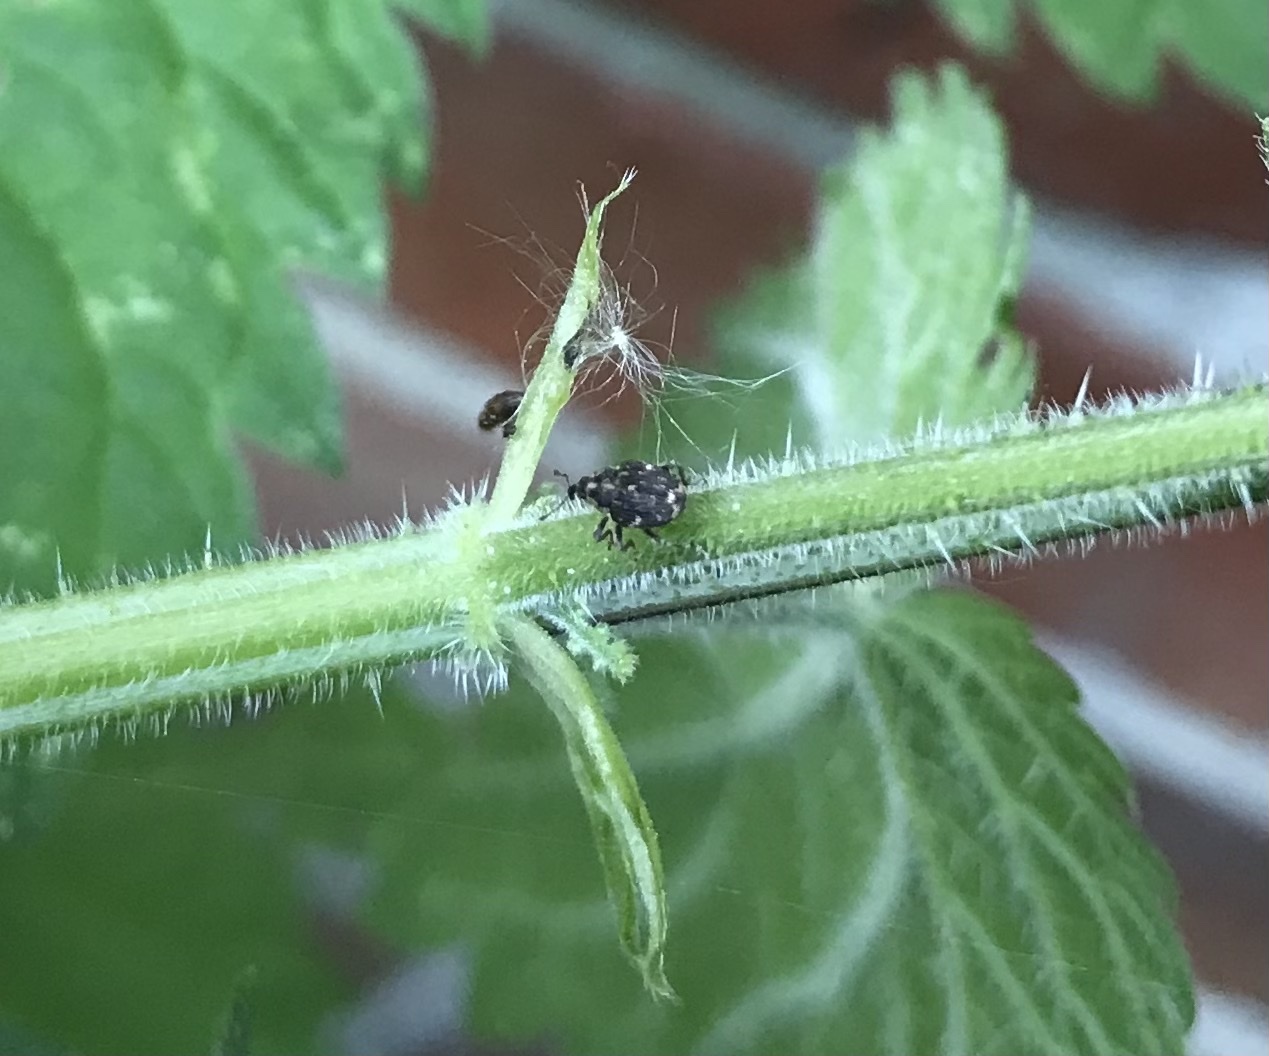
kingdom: Animalia
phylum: Arthropoda
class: Insecta
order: Coleoptera
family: Curculionidae
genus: Nedyus
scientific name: Nedyus quadrimaculatus
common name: Small nettle weevil
